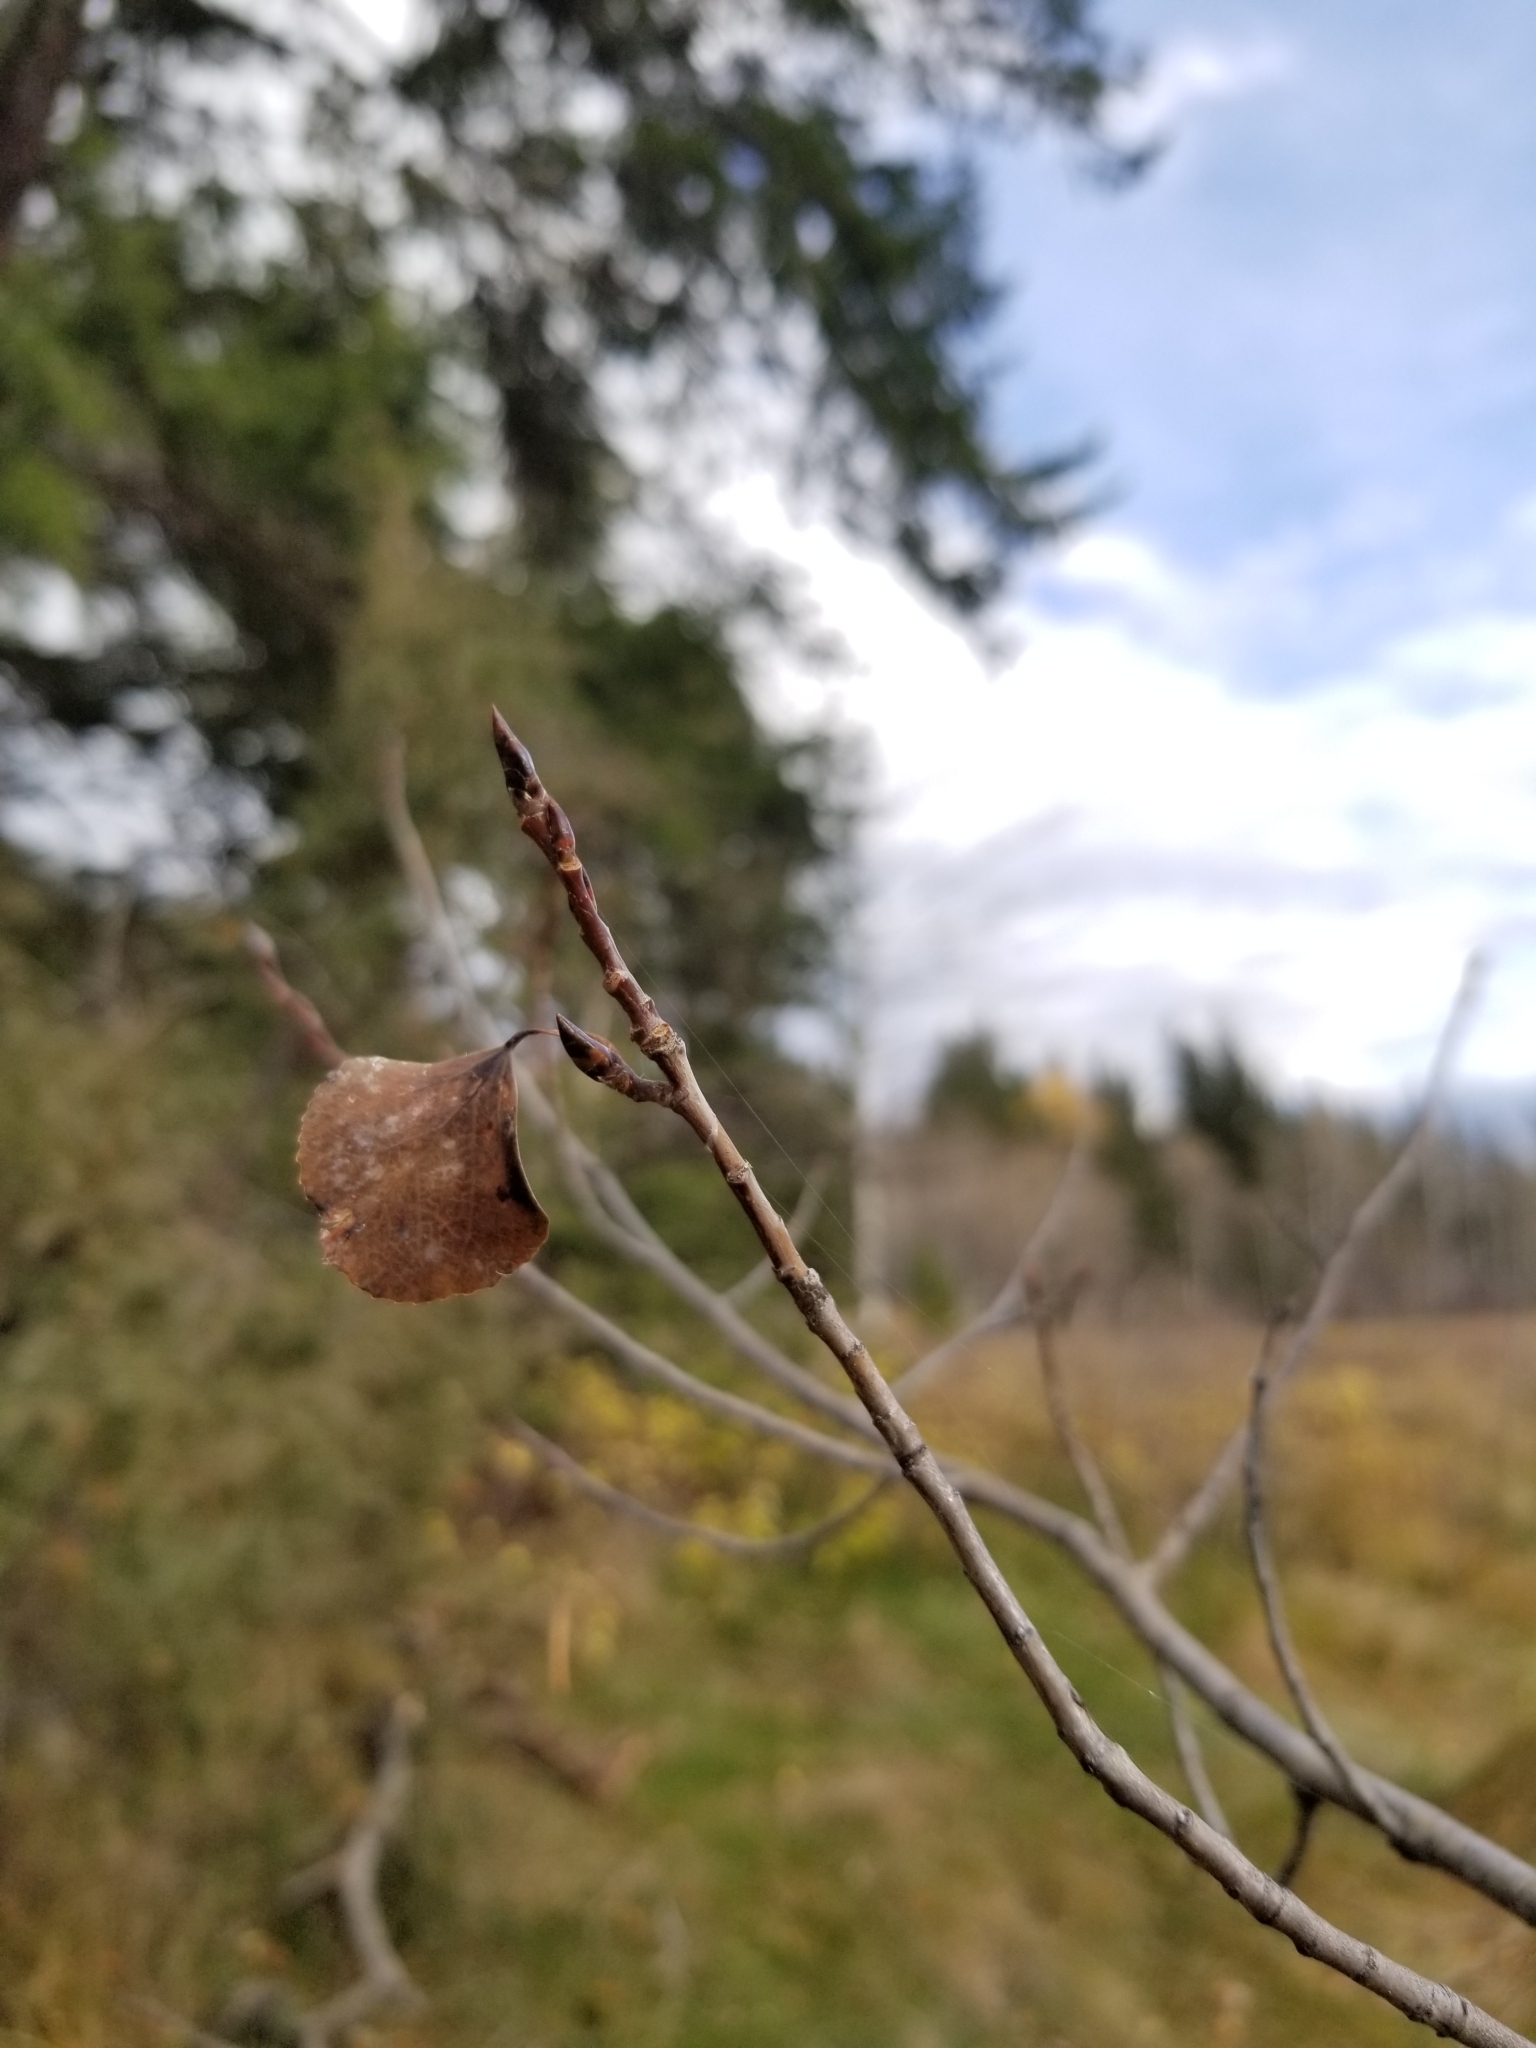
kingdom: Plantae
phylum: Tracheophyta
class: Magnoliopsida
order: Malpighiales
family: Salicaceae
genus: Populus
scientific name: Populus tremuloides
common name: Quaking aspen
